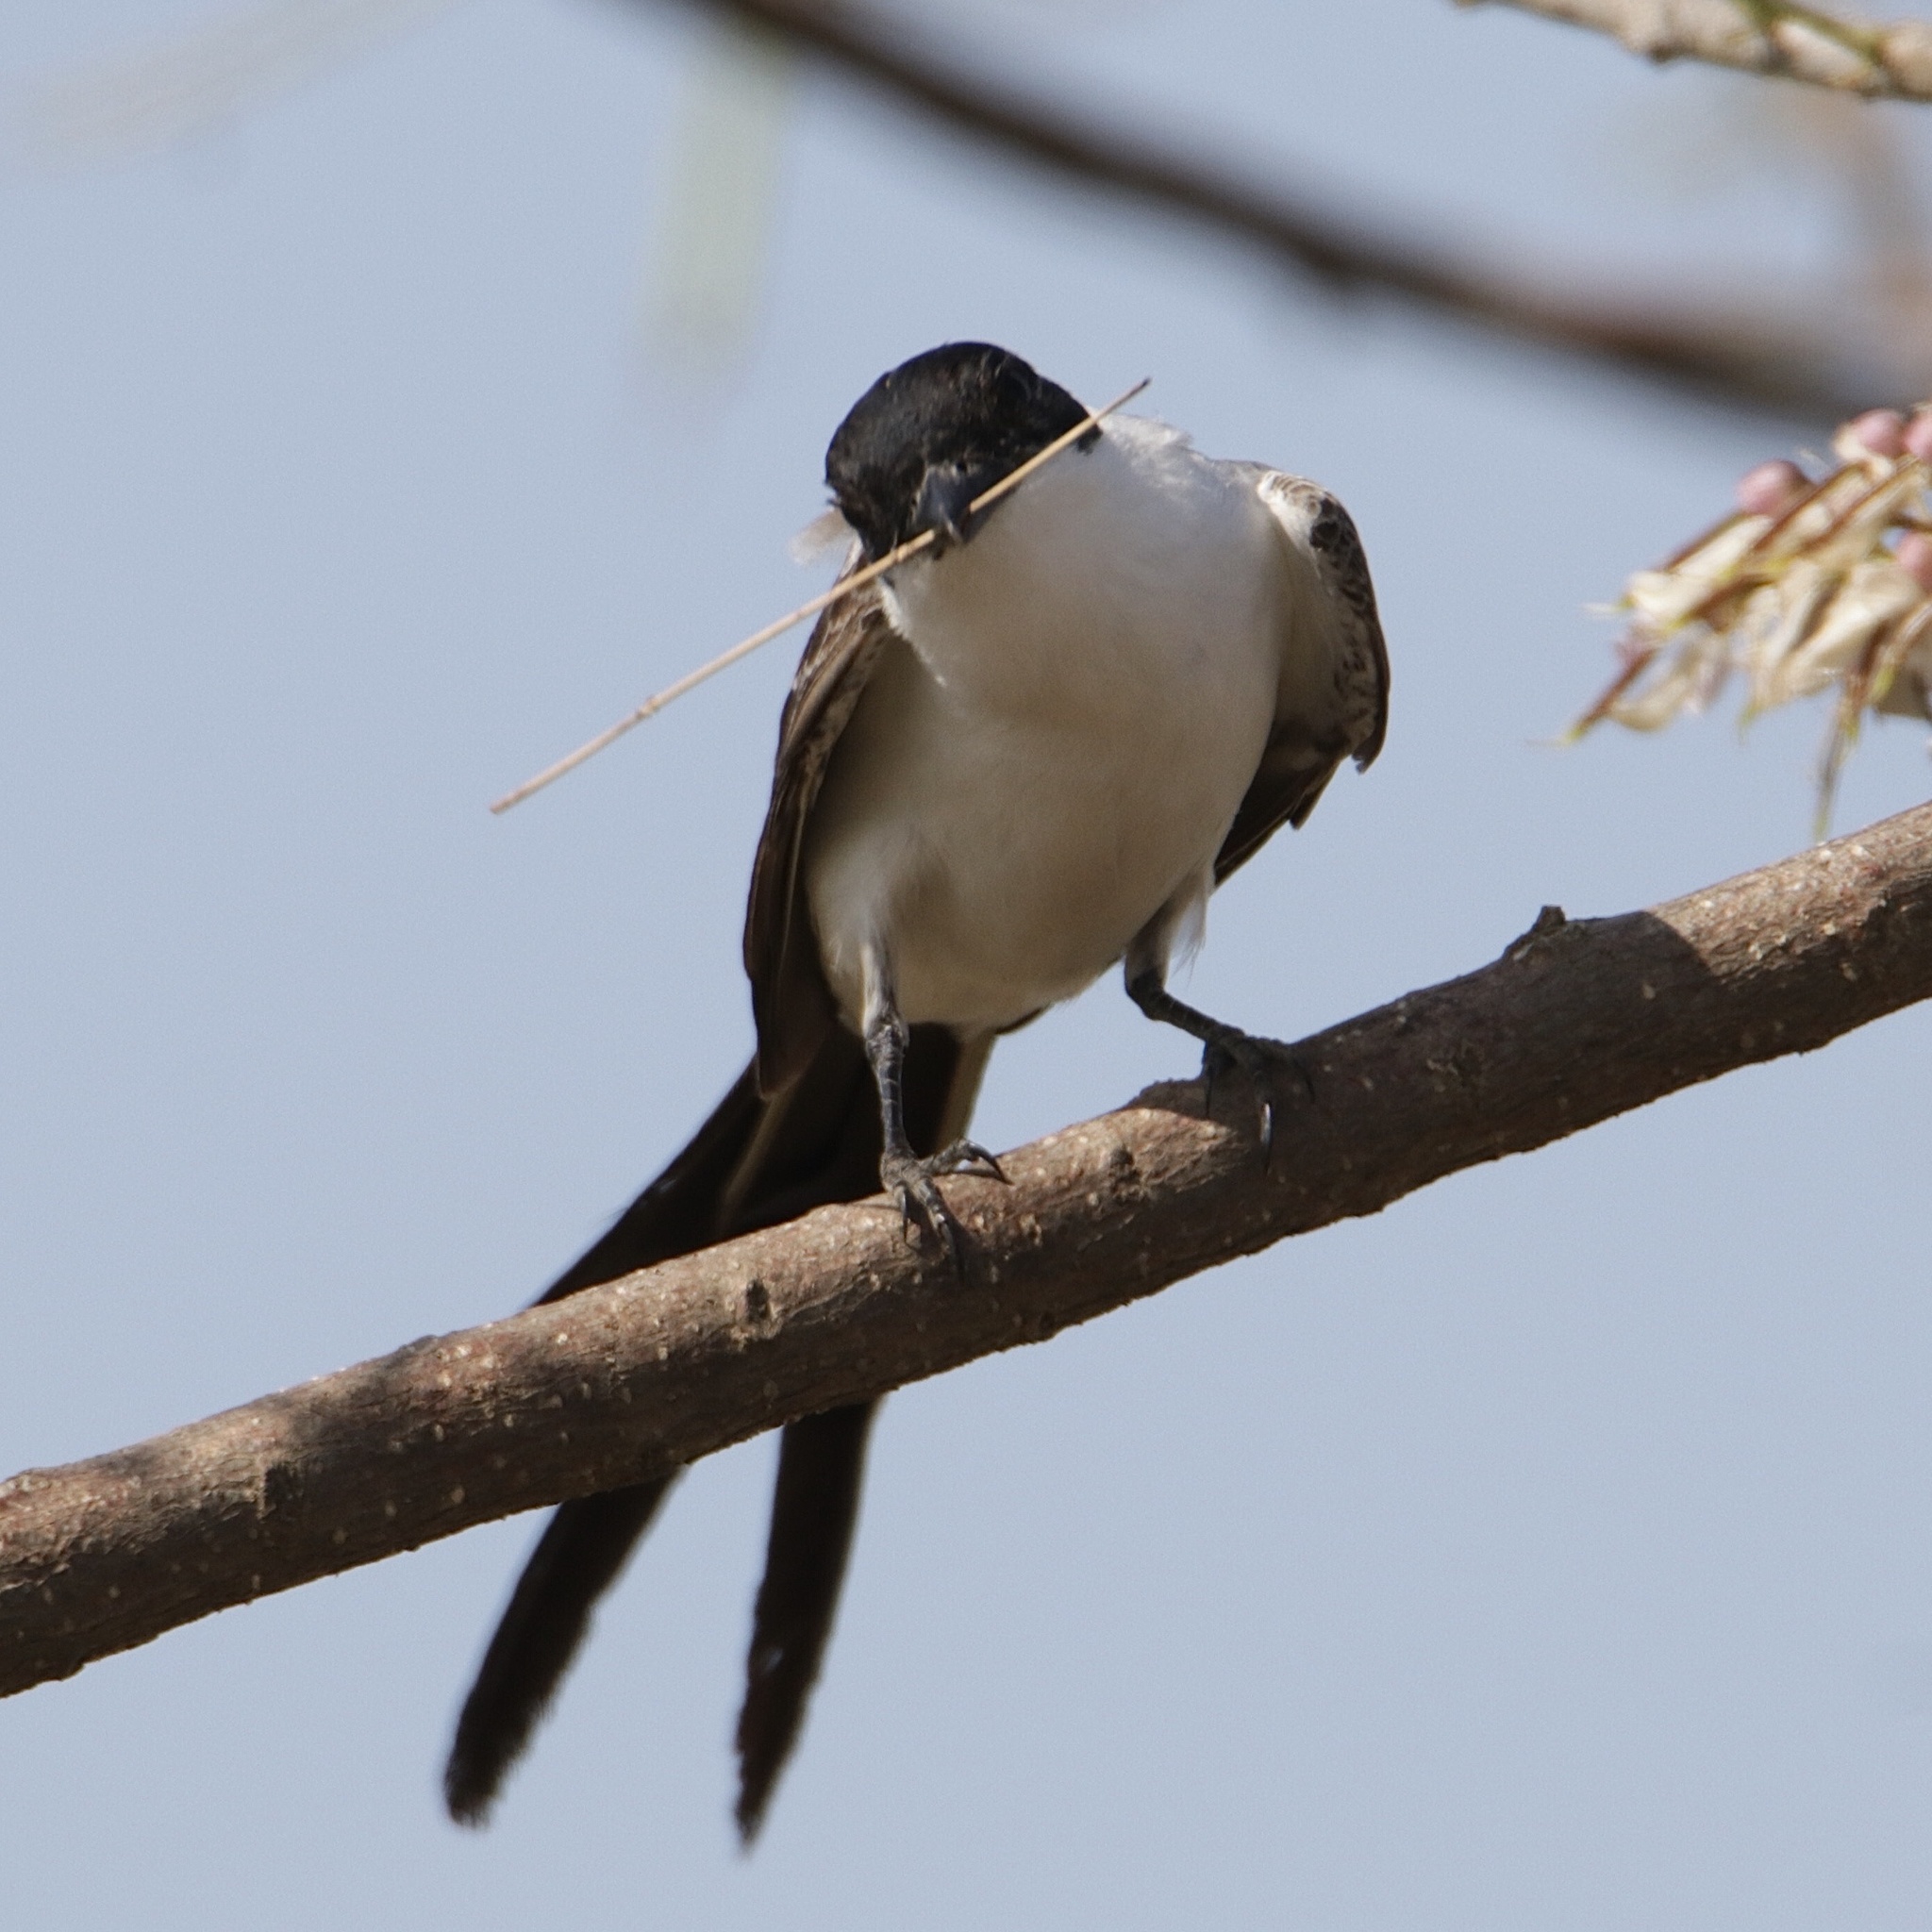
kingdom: Animalia
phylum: Chordata
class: Aves
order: Passeriformes
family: Tyrannidae
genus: Tyrannus
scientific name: Tyrannus savana
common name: Fork-tailed flycatcher
